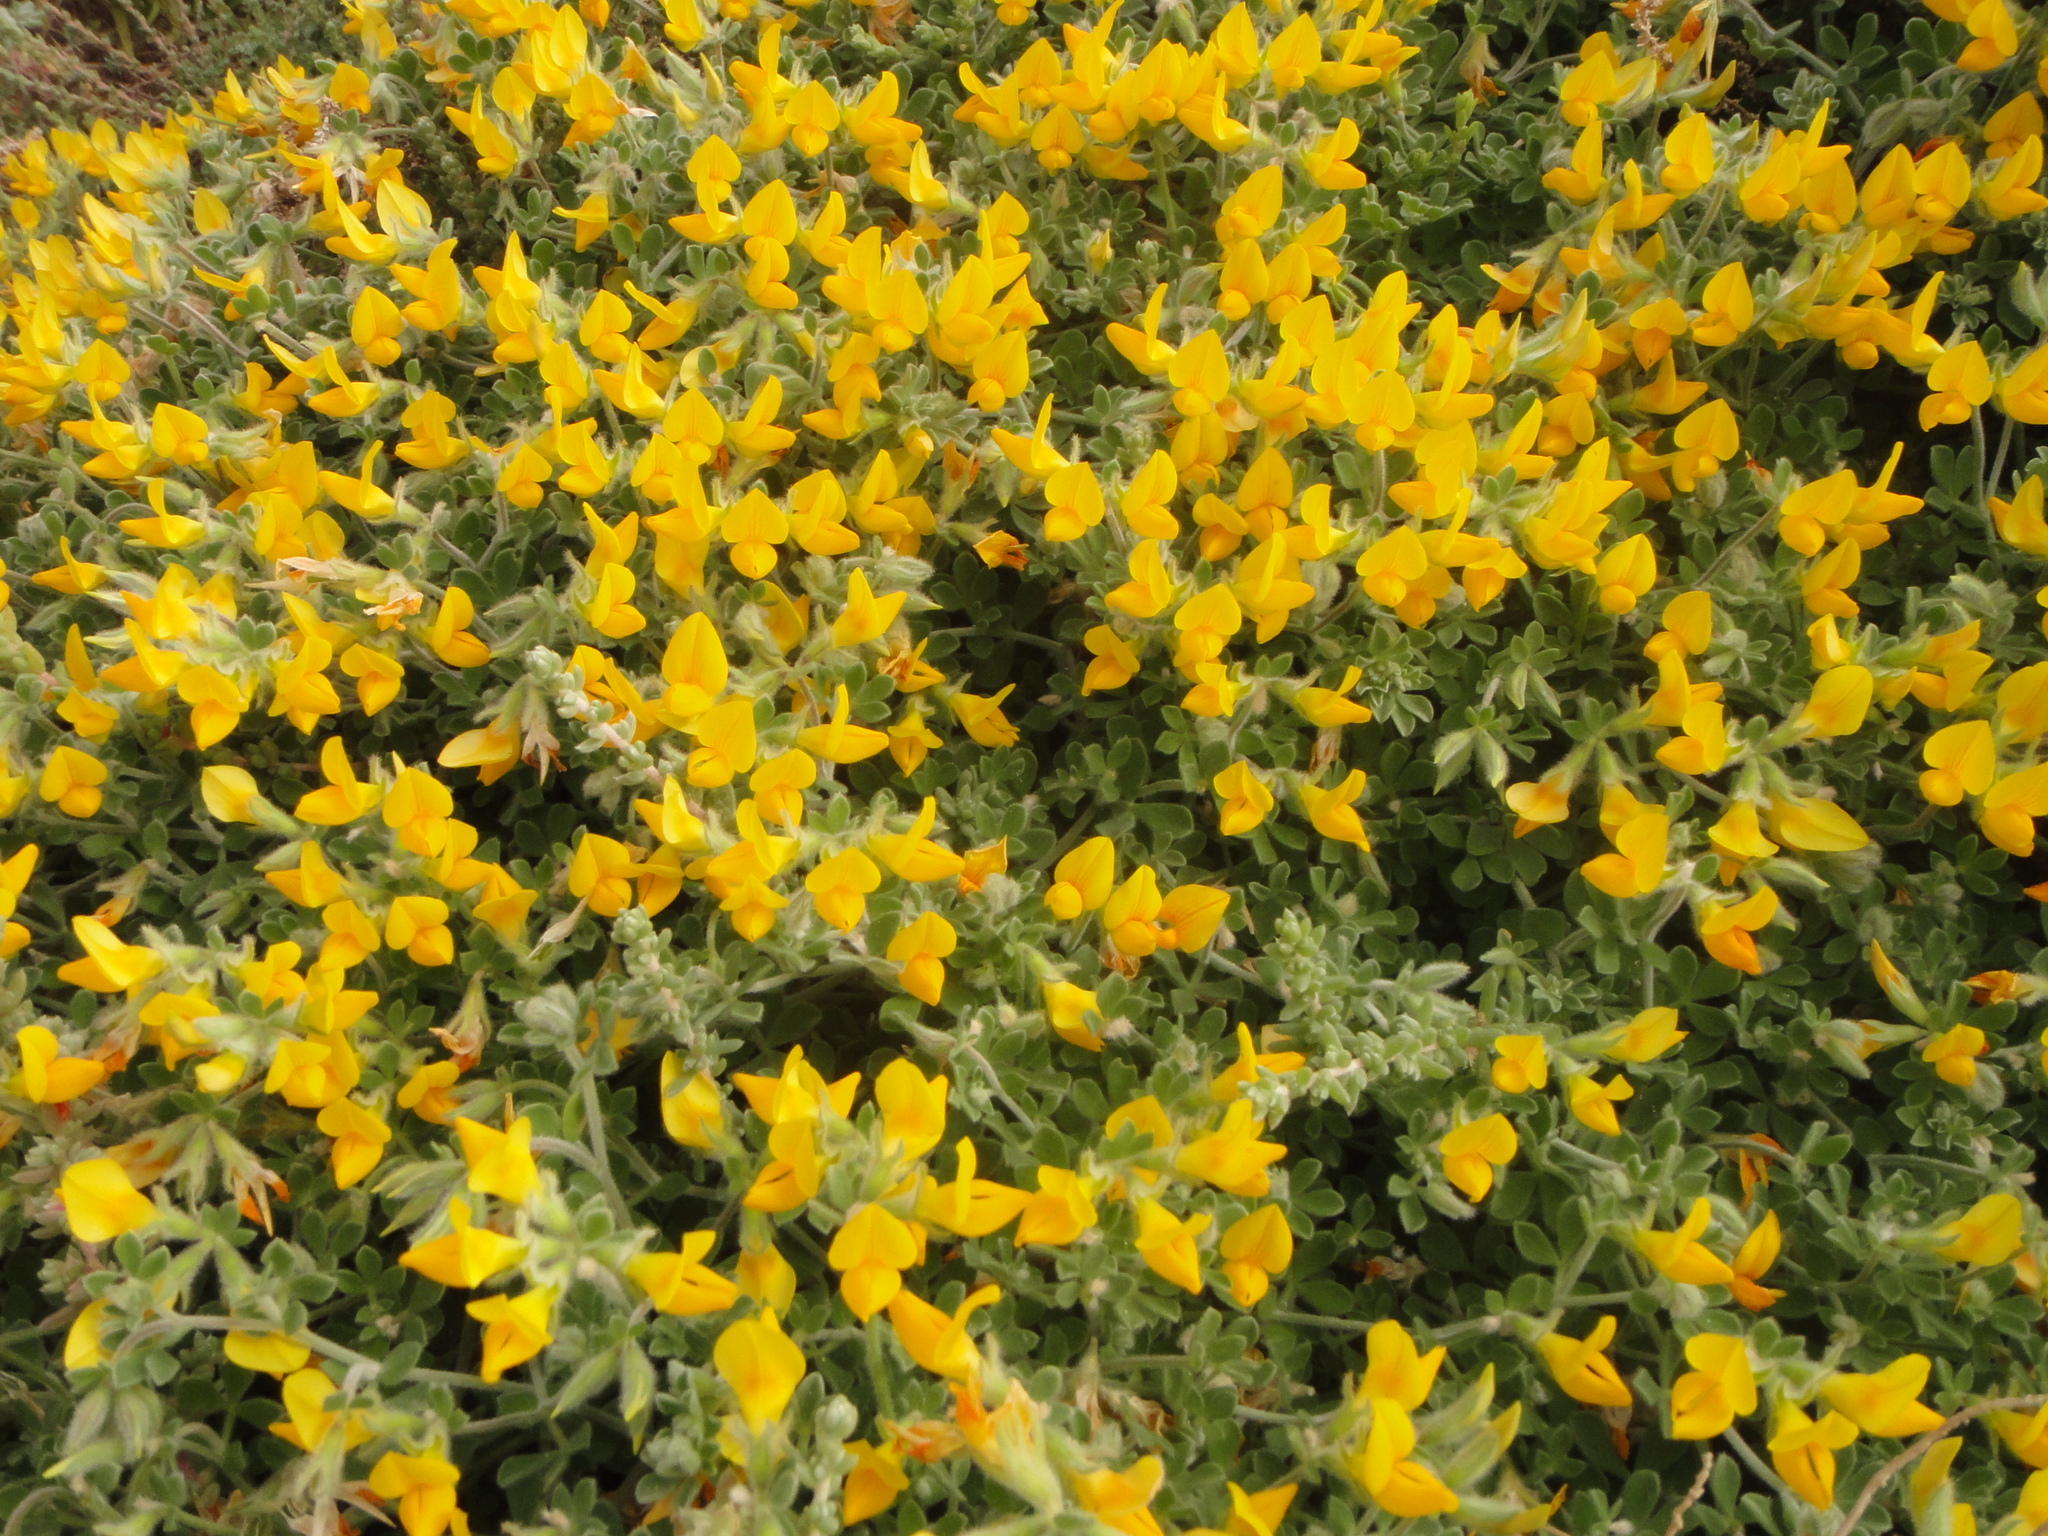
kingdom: Plantae
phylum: Tracheophyta
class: Magnoliopsida
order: Fabales
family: Fabaceae
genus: Lotus
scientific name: Lotus lancerottensis
